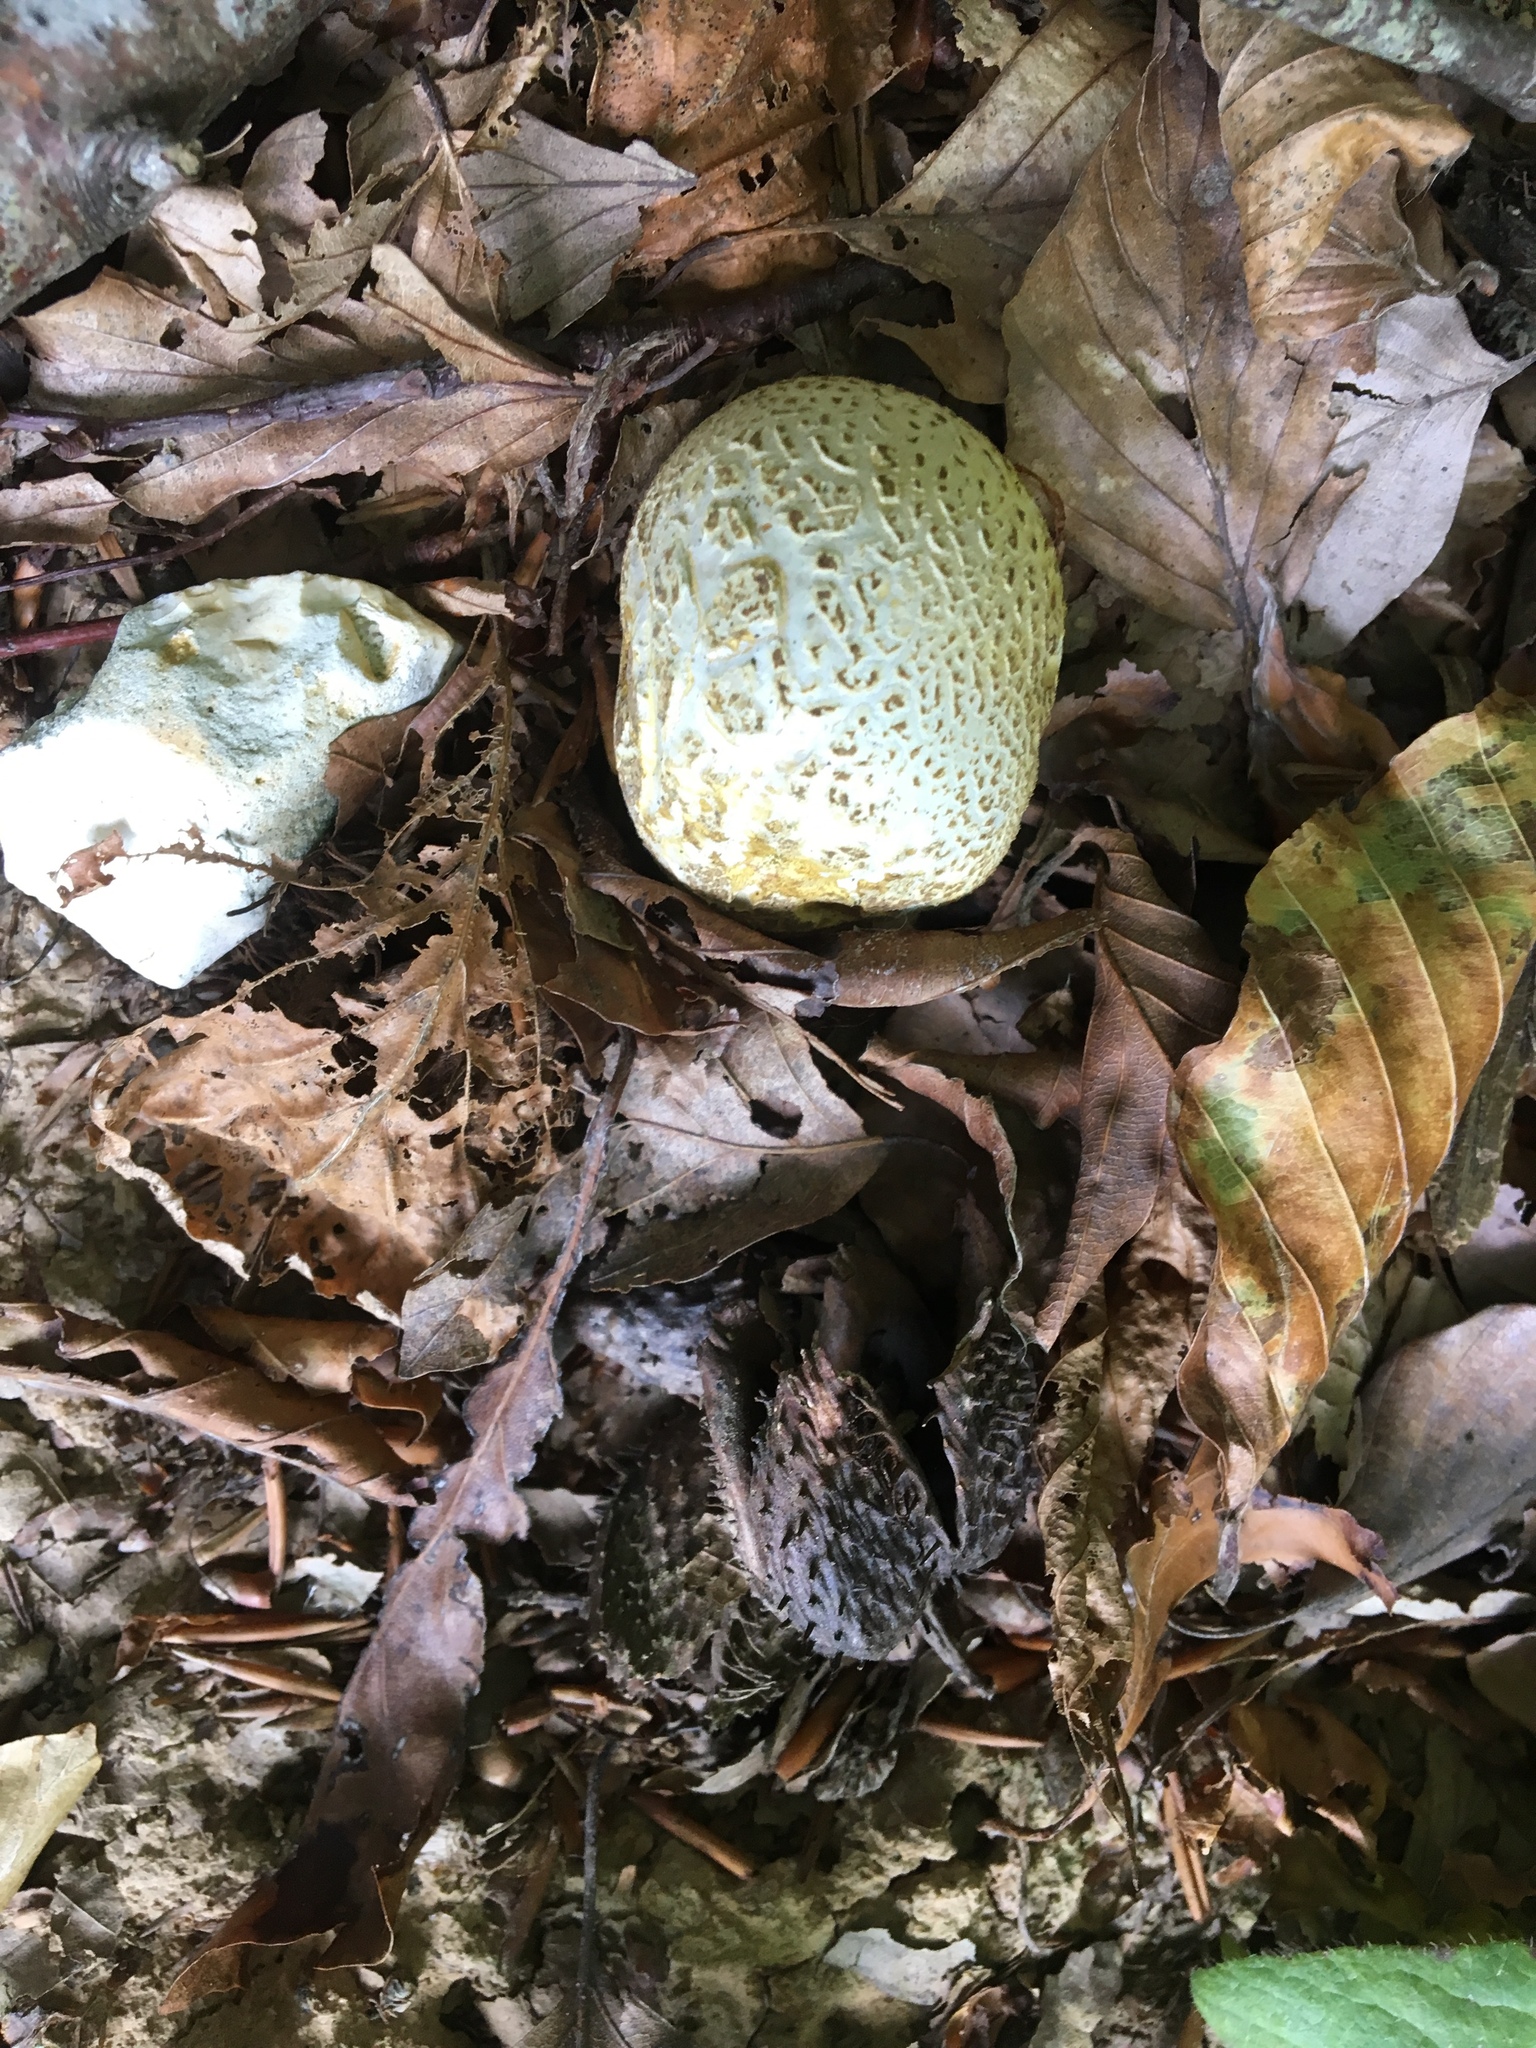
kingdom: Fungi
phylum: Basidiomycota
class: Agaricomycetes
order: Boletales
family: Sclerodermataceae
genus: Scleroderma
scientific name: Scleroderma citrinum
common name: Common earthball
